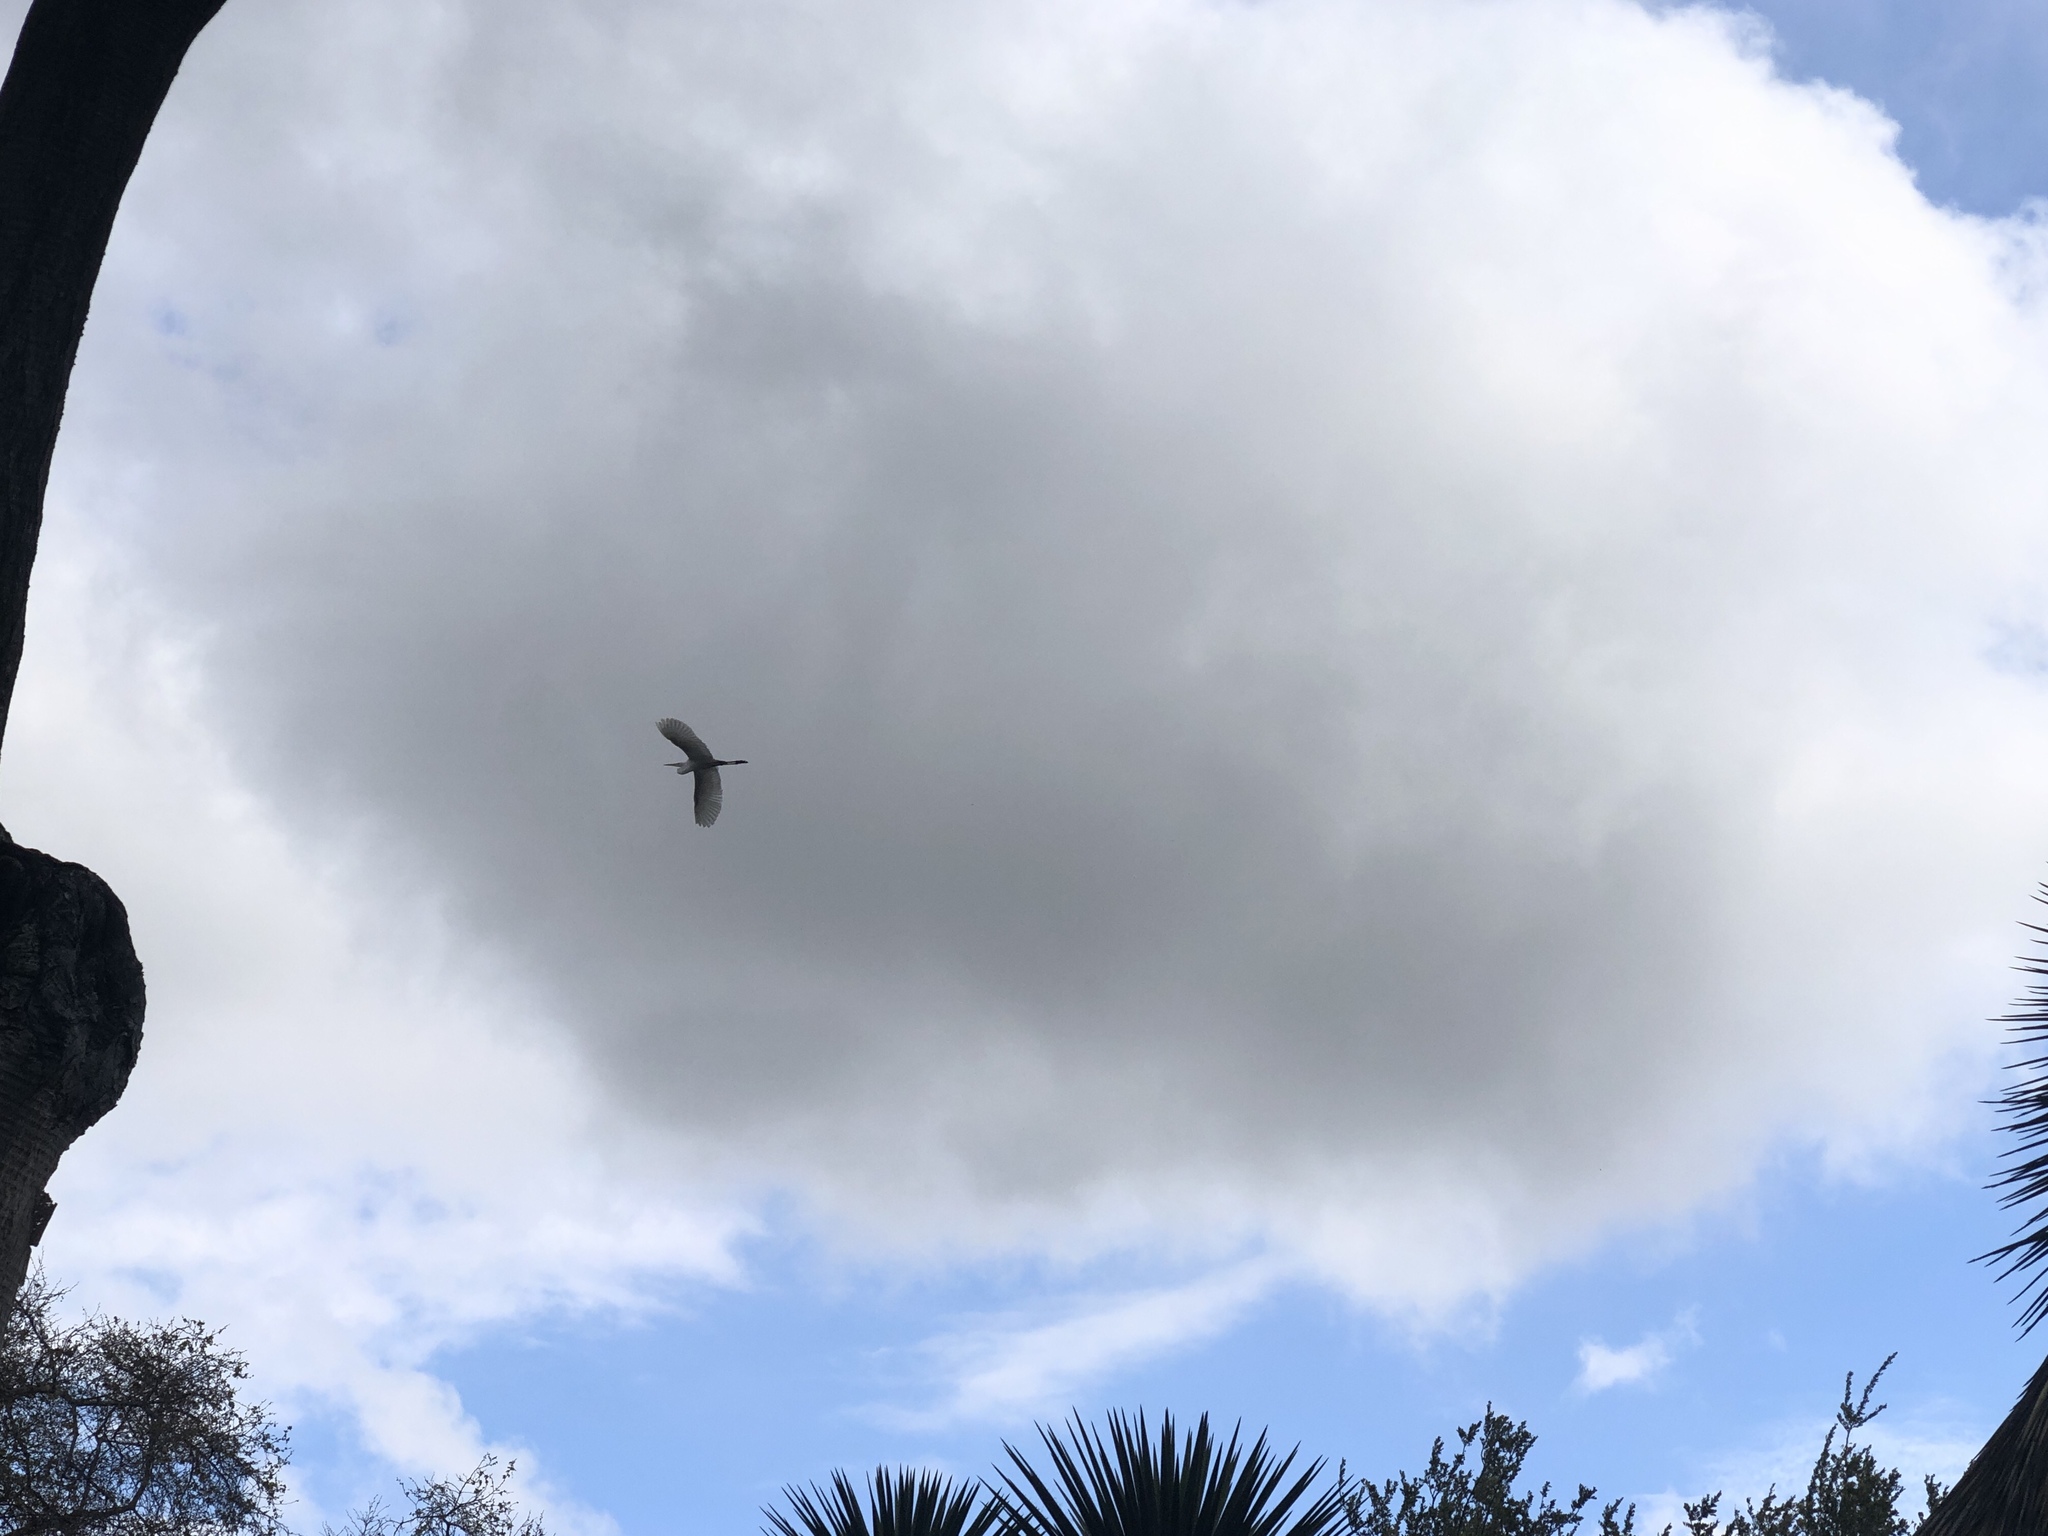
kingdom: Animalia
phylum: Chordata
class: Aves
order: Pelecaniformes
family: Ardeidae
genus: Ardea
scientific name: Ardea alba
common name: Great egret
